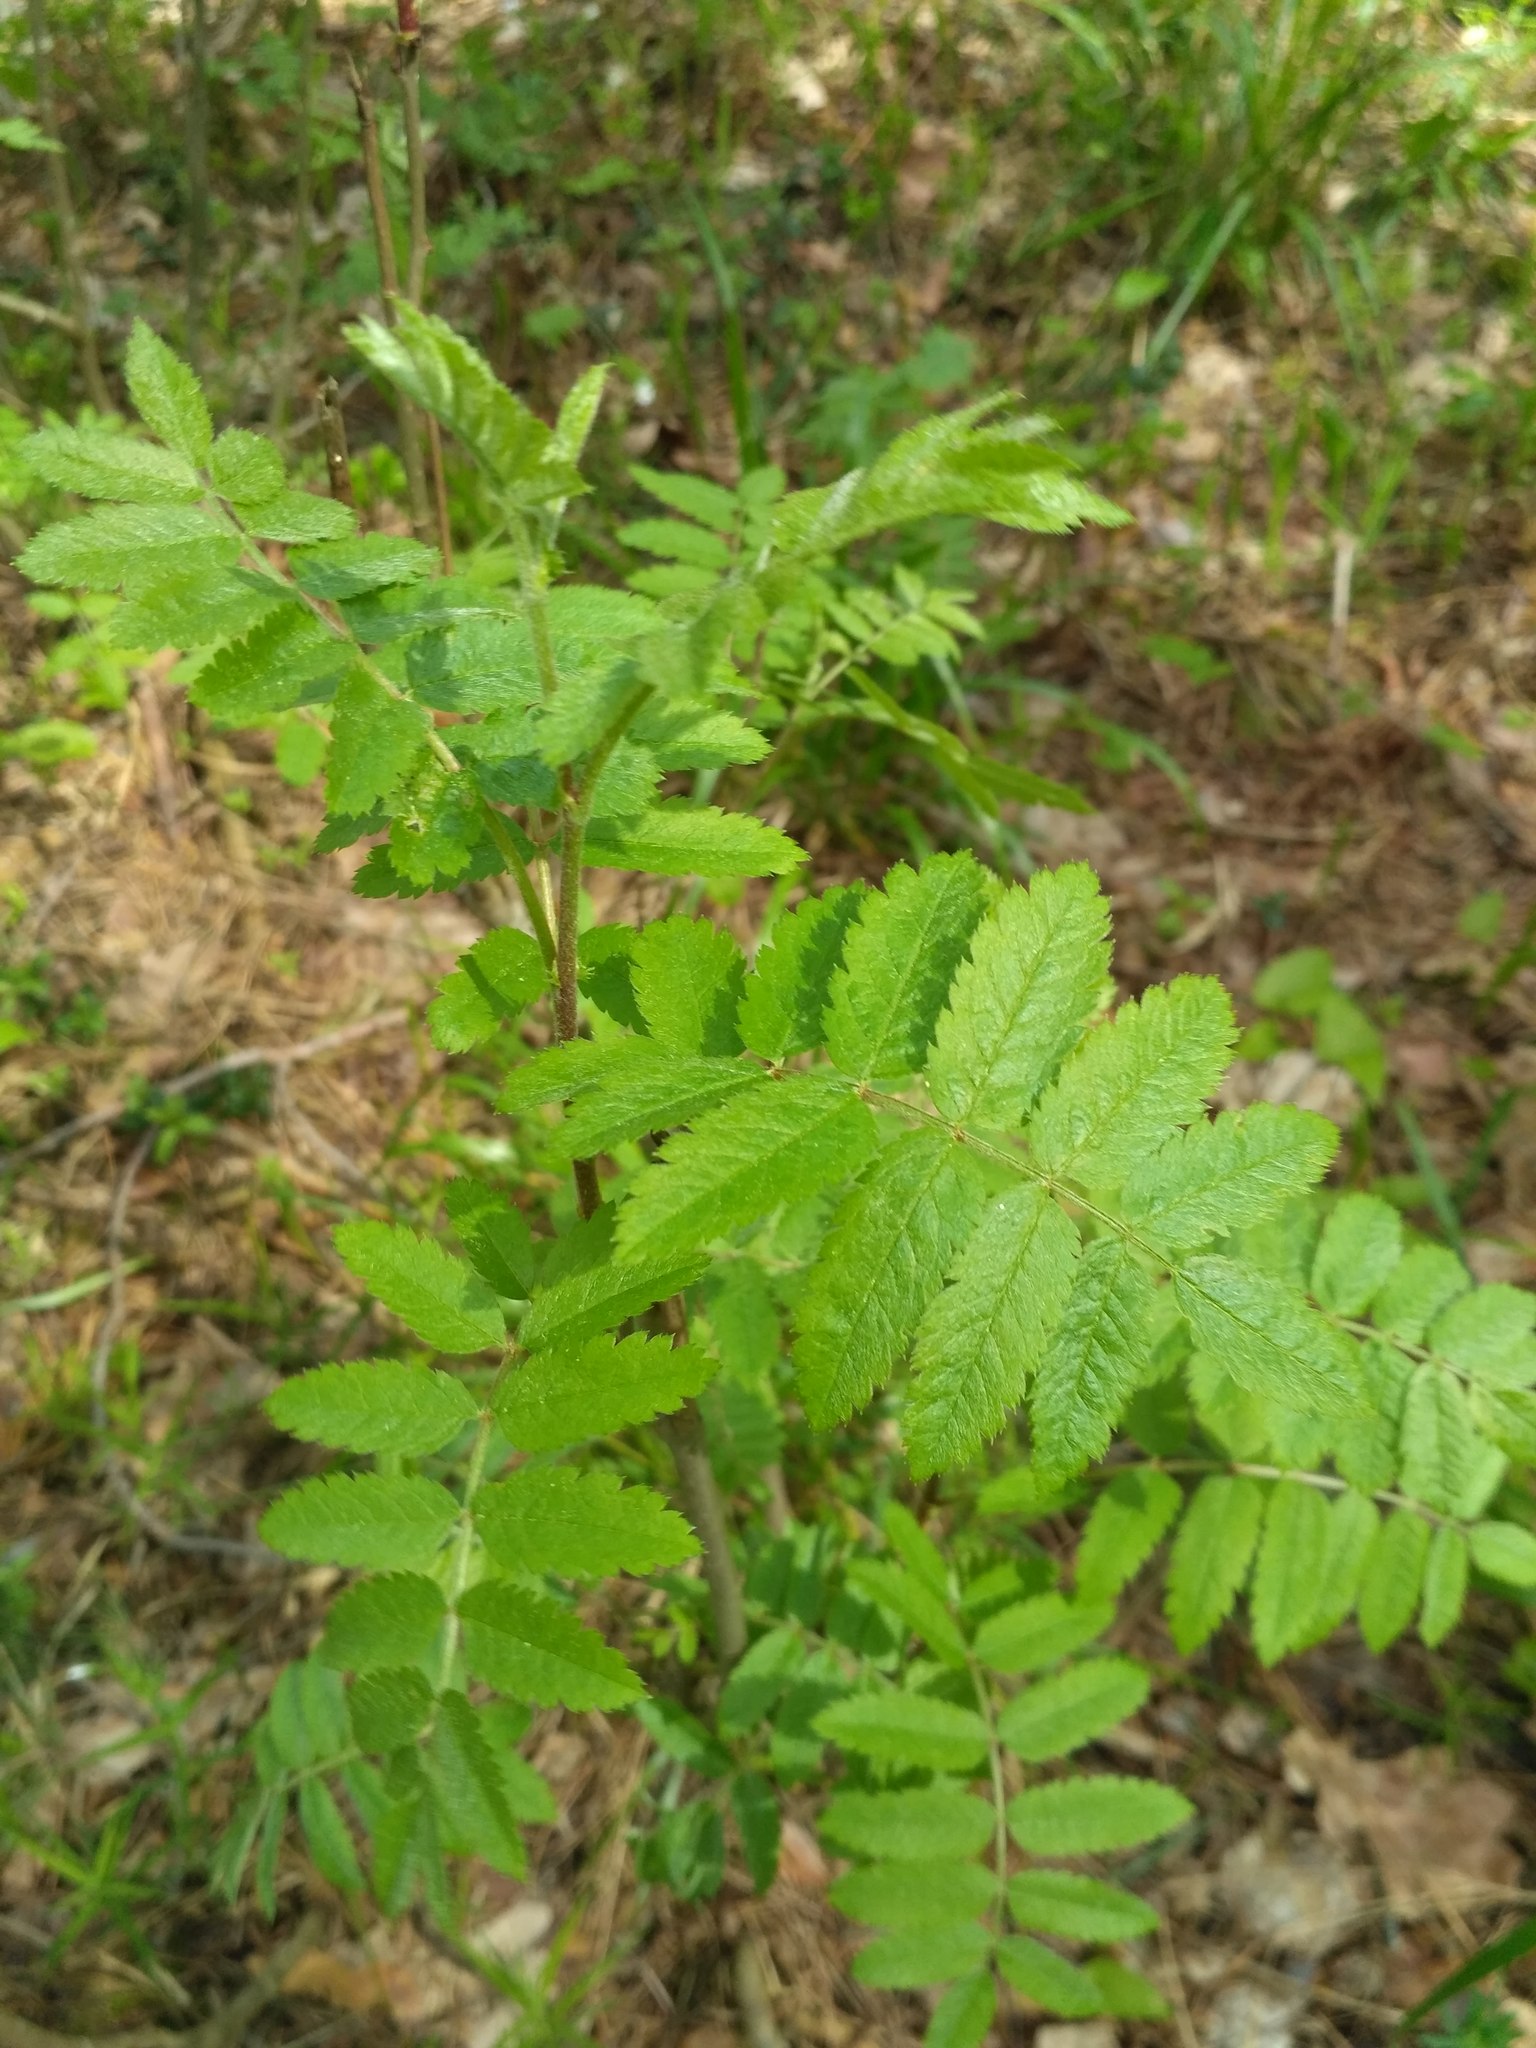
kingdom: Plantae
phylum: Tracheophyta
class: Magnoliopsida
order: Rosales
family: Rosaceae
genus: Sorbus
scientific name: Sorbus aucuparia
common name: Rowan
